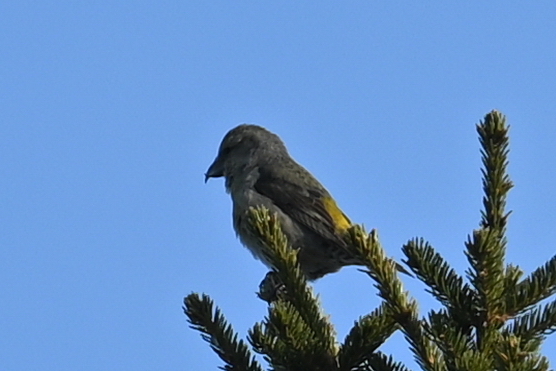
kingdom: Animalia
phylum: Chordata
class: Aves
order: Passeriformes
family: Fringillidae
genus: Loxia
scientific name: Loxia curvirostra
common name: Red crossbill
